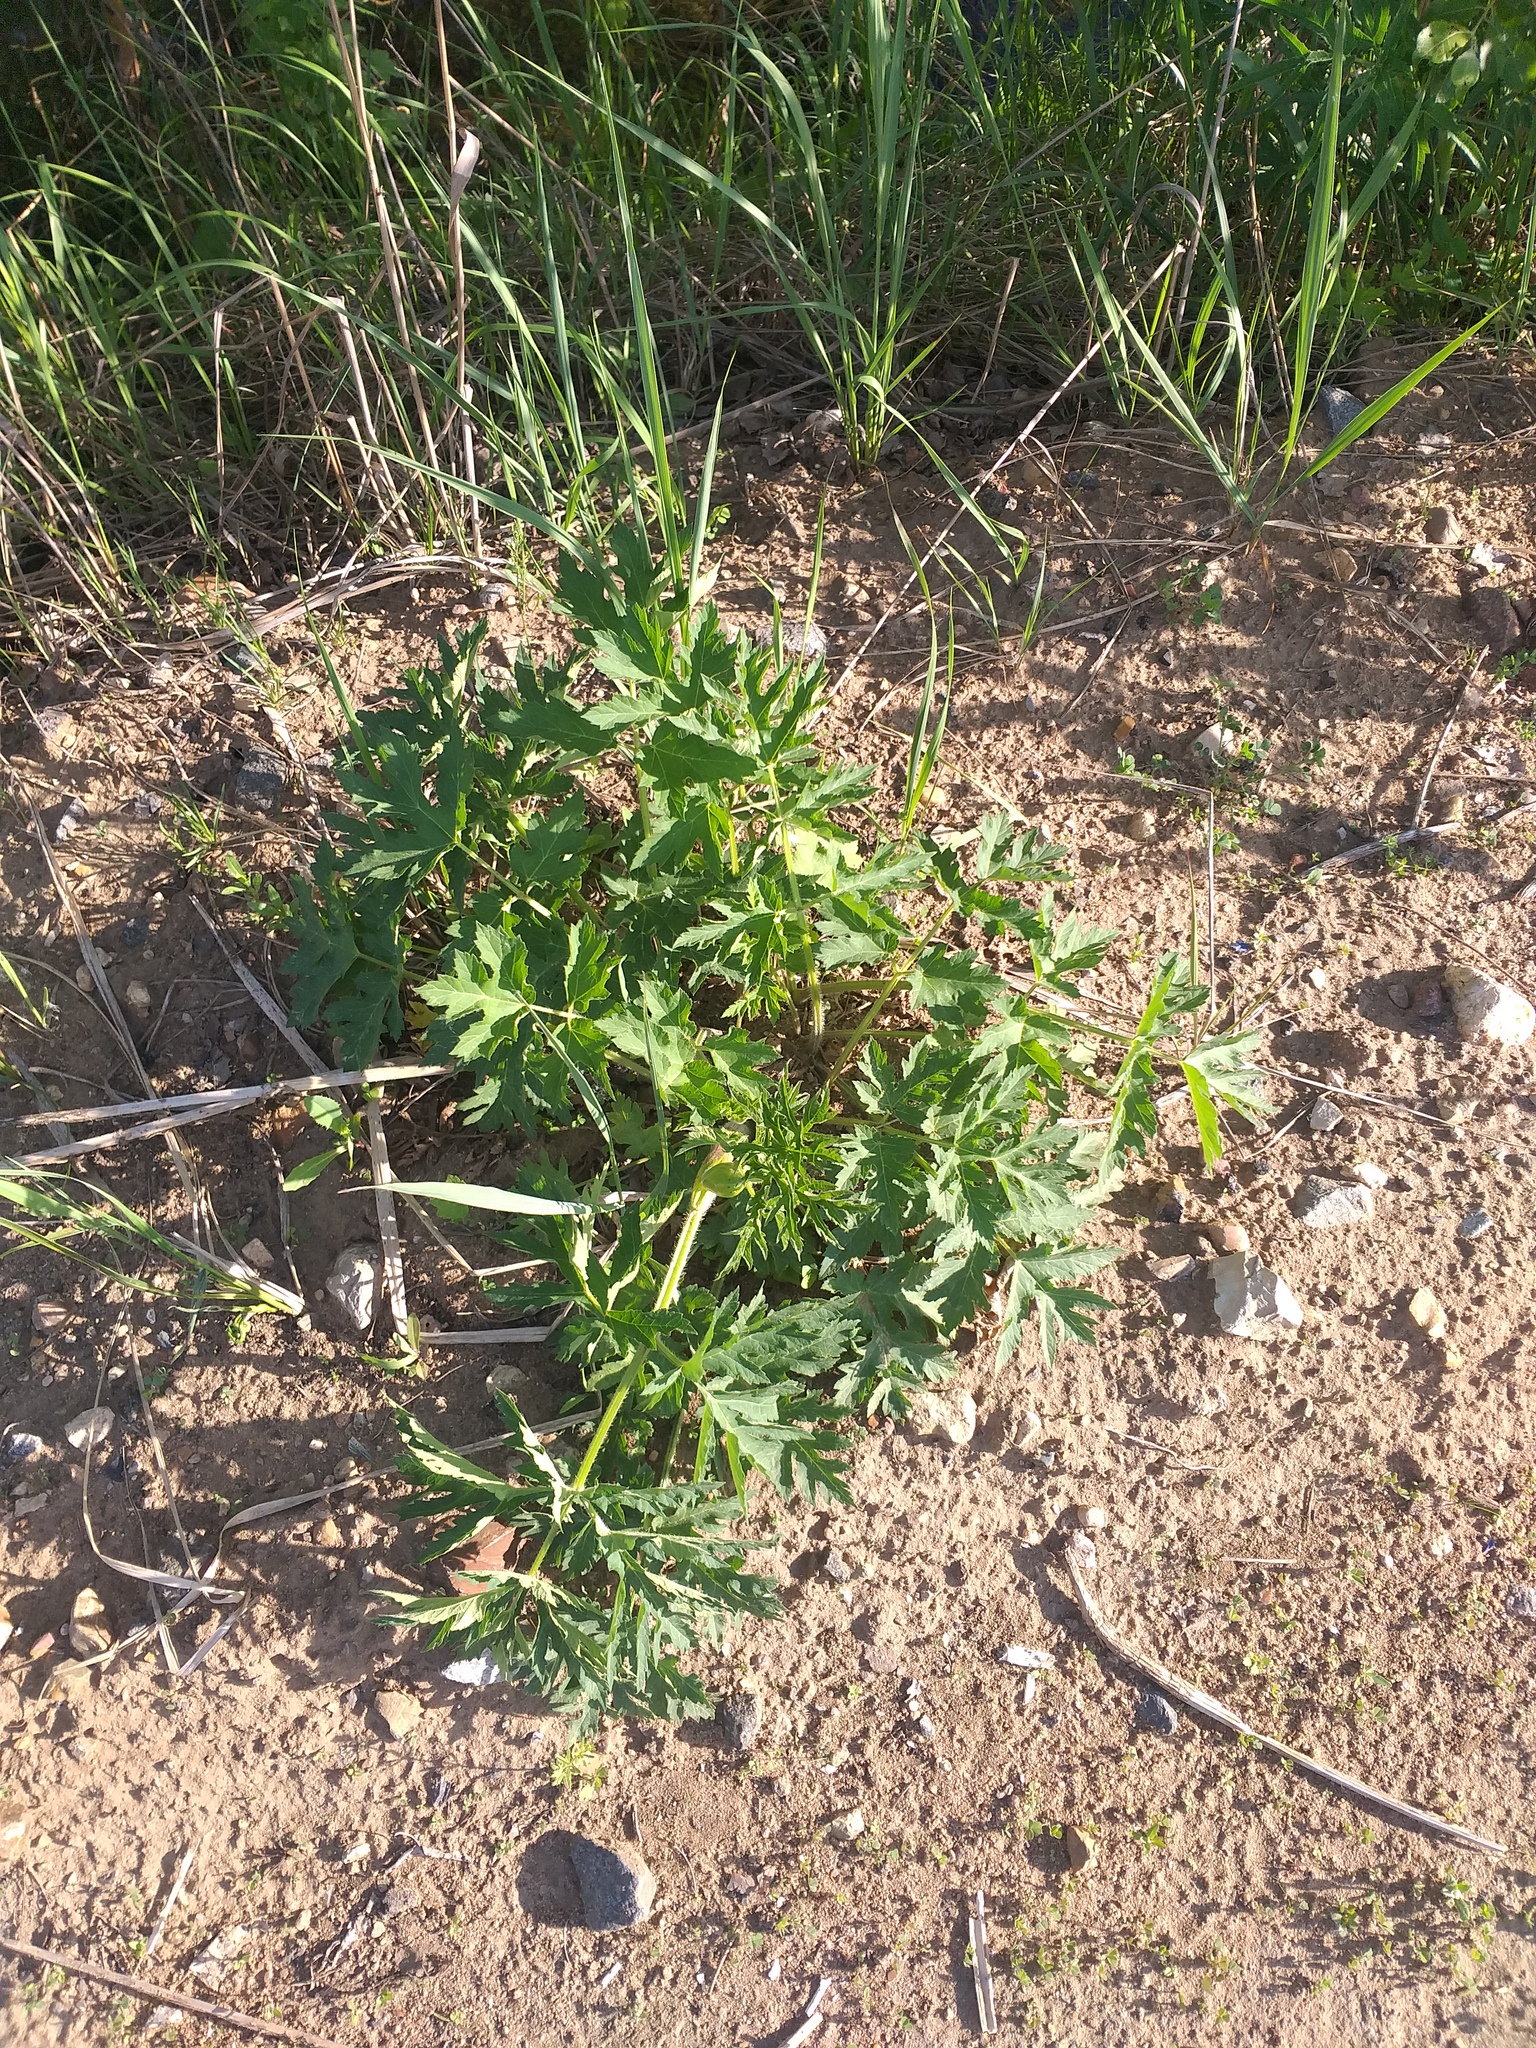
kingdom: Plantae
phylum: Tracheophyta
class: Magnoliopsida
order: Apiales
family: Apiaceae
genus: Heracleum
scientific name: Heracleum sphondylium
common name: Hogweed
